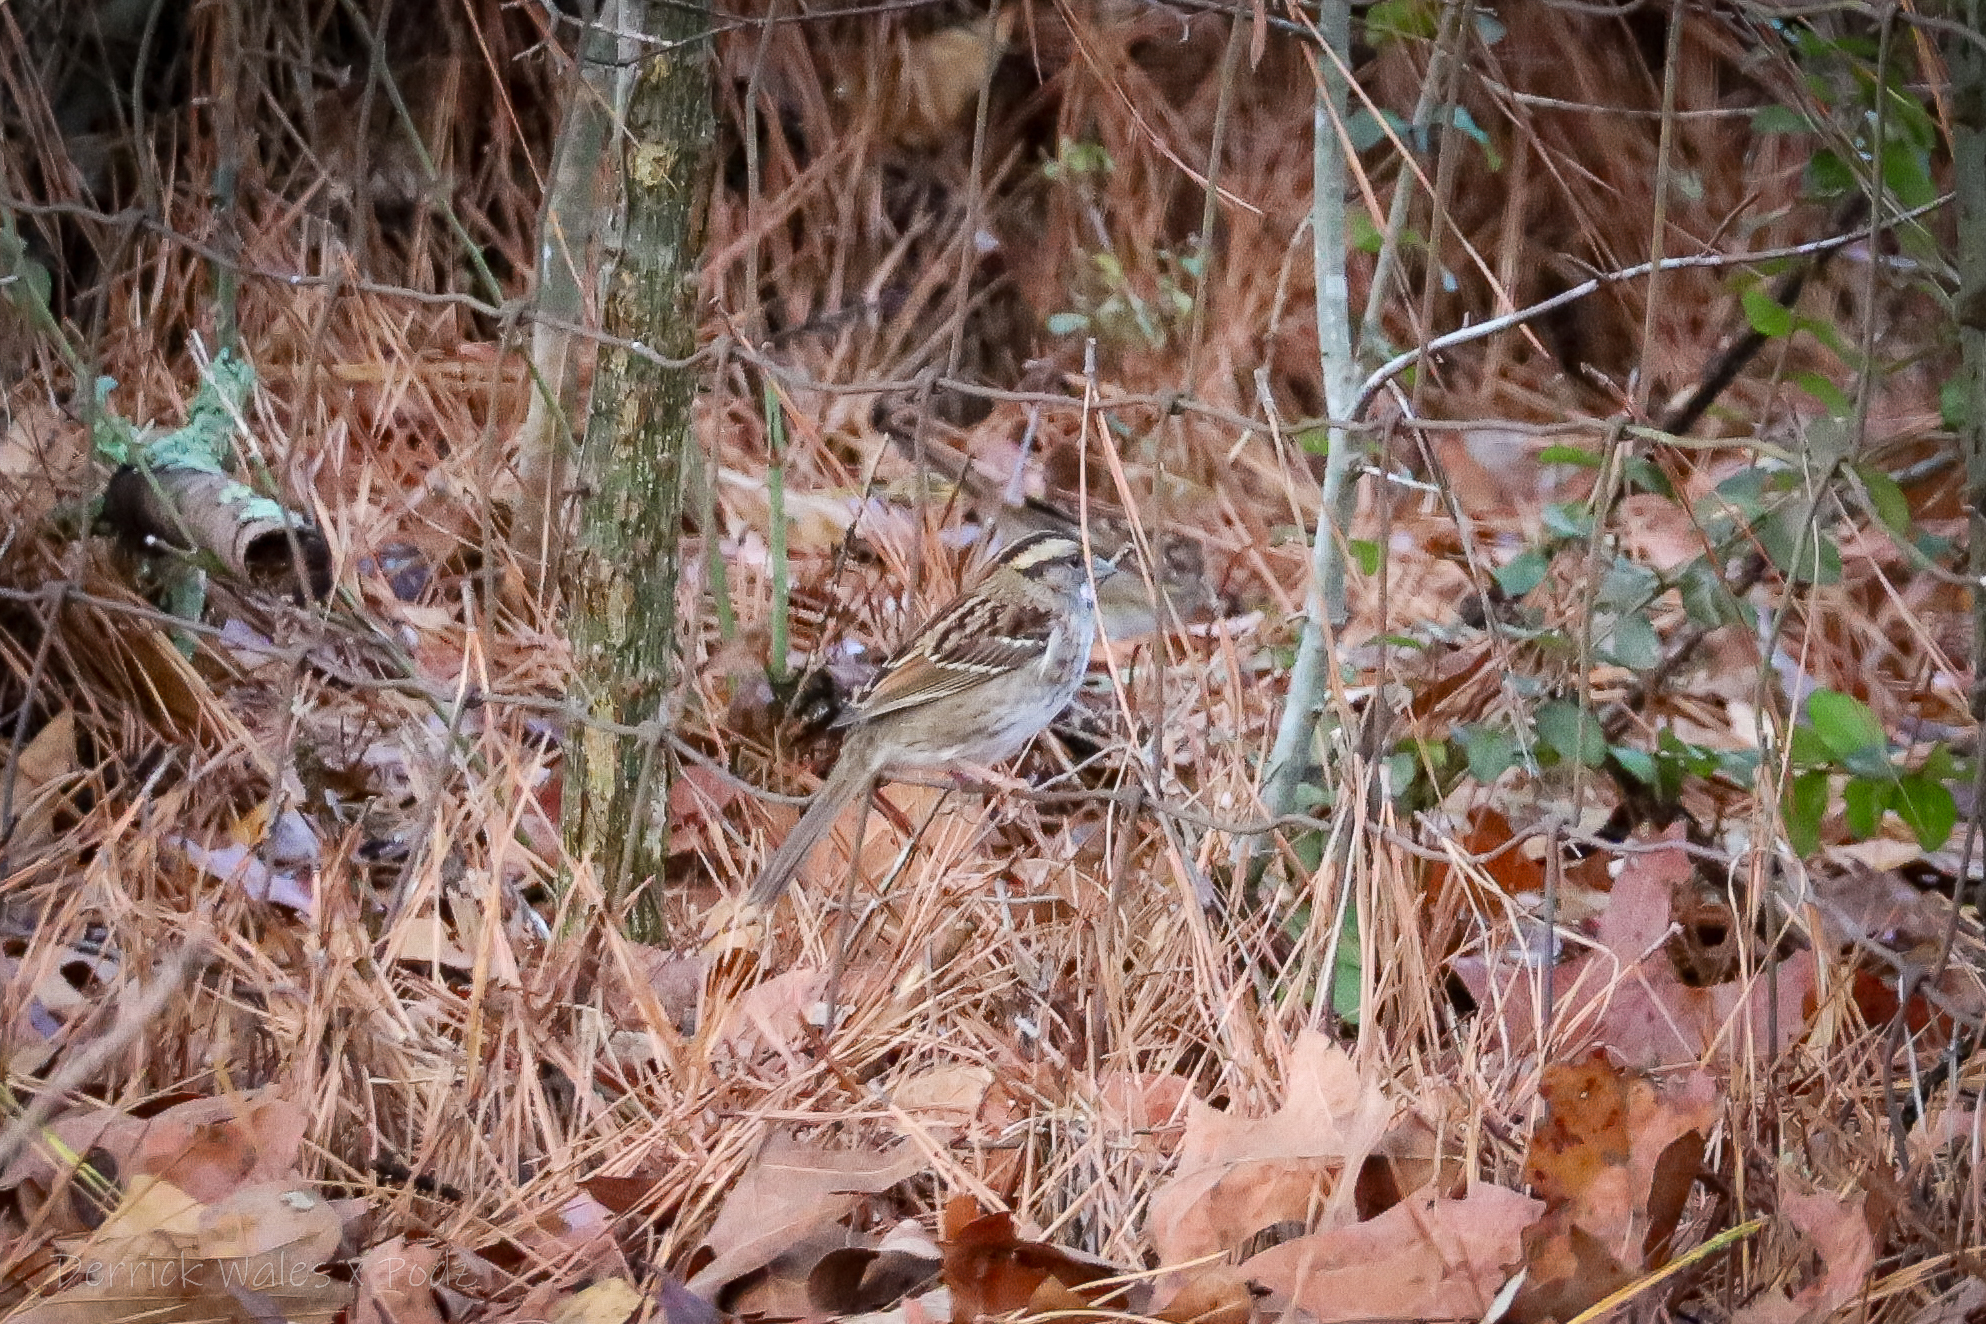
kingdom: Animalia
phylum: Chordata
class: Aves
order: Passeriformes
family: Passerellidae
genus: Zonotrichia
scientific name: Zonotrichia albicollis
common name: White-throated sparrow
